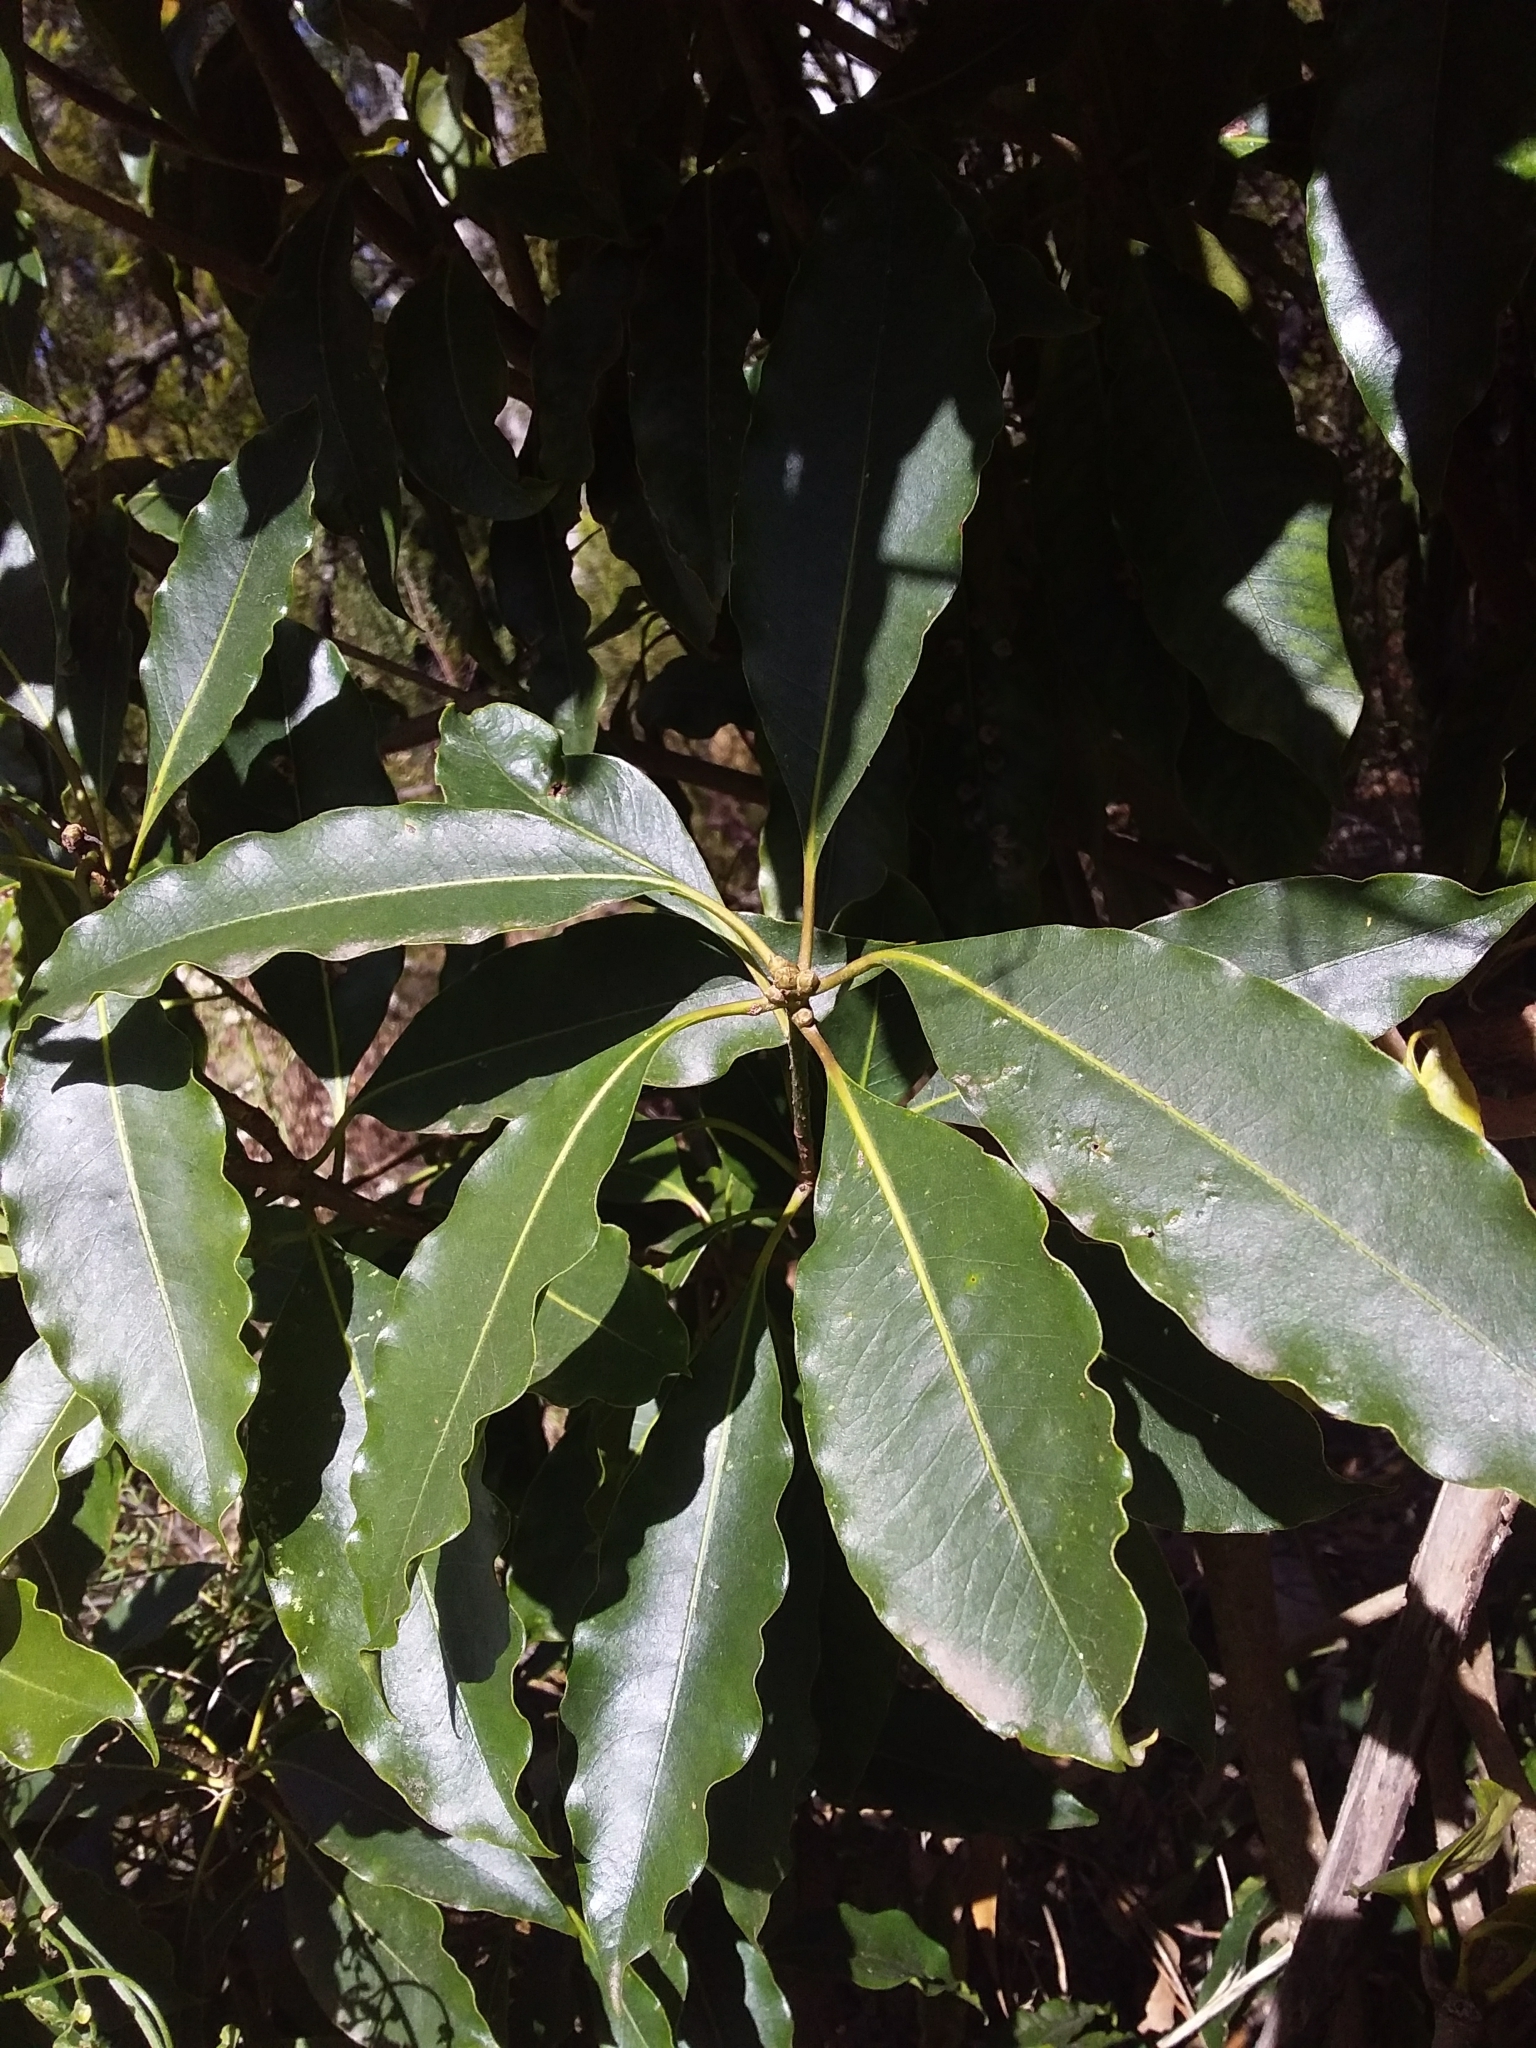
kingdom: Plantae
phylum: Tracheophyta
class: Magnoliopsida
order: Apiales
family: Pittosporaceae
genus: Pittosporum
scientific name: Pittosporum undulatum
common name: Australian cheesewood
